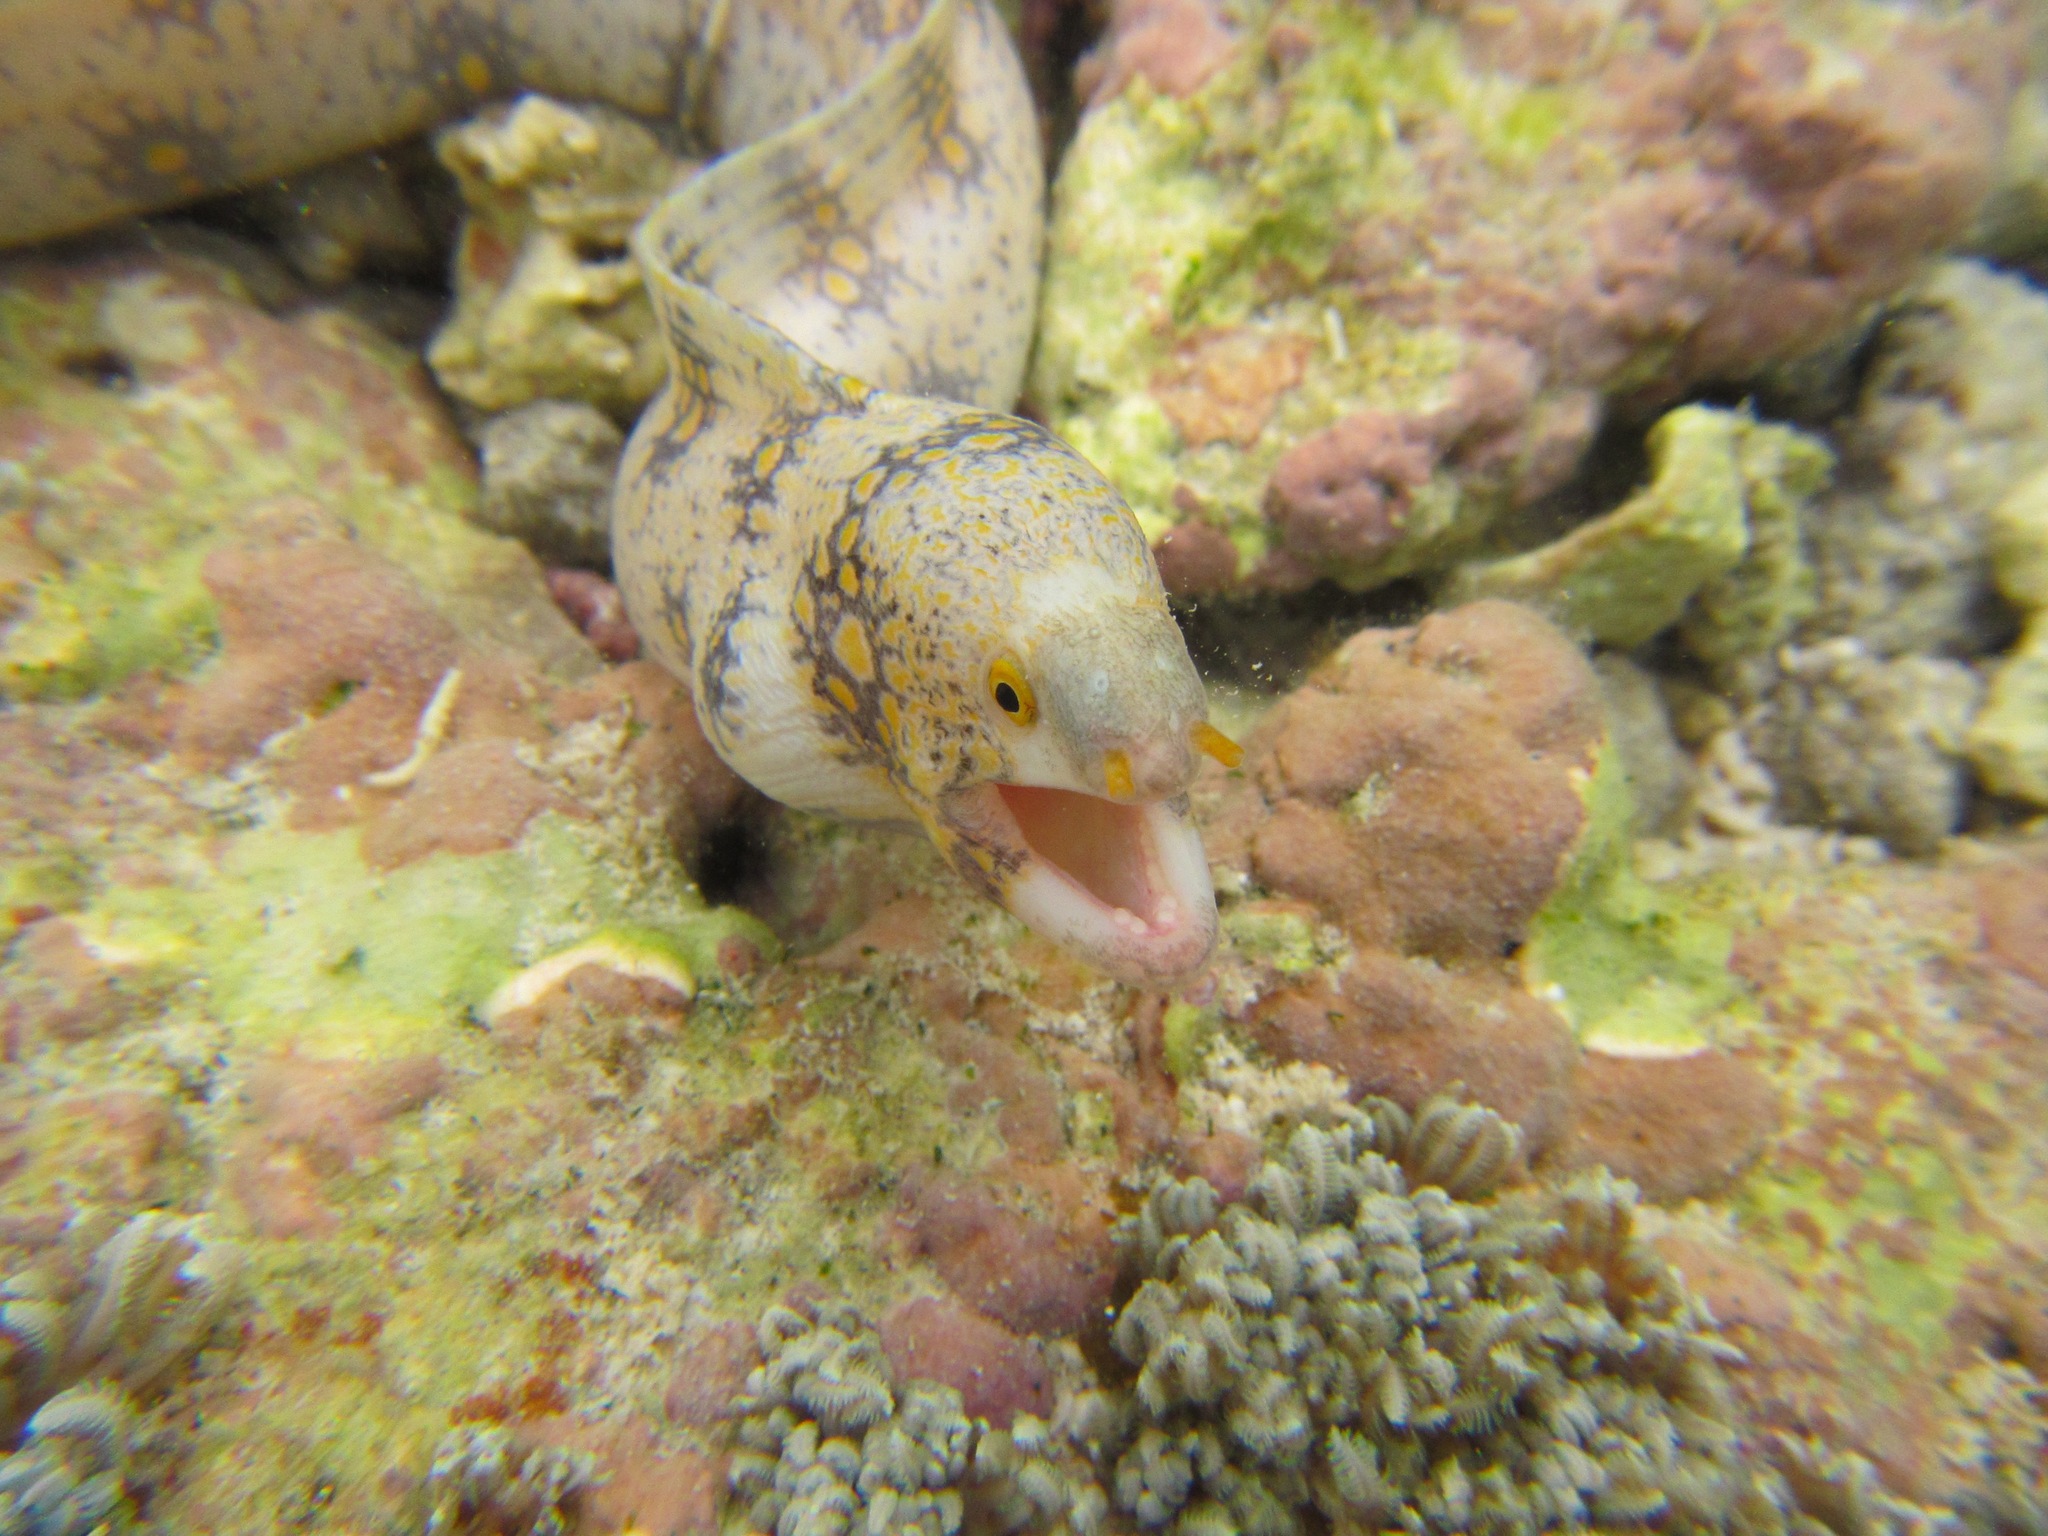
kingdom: Animalia
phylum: Chordata
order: Anguilliformes
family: Muraenidae
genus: Echidna
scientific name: Echidna nebulosa
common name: Snowflake moray
